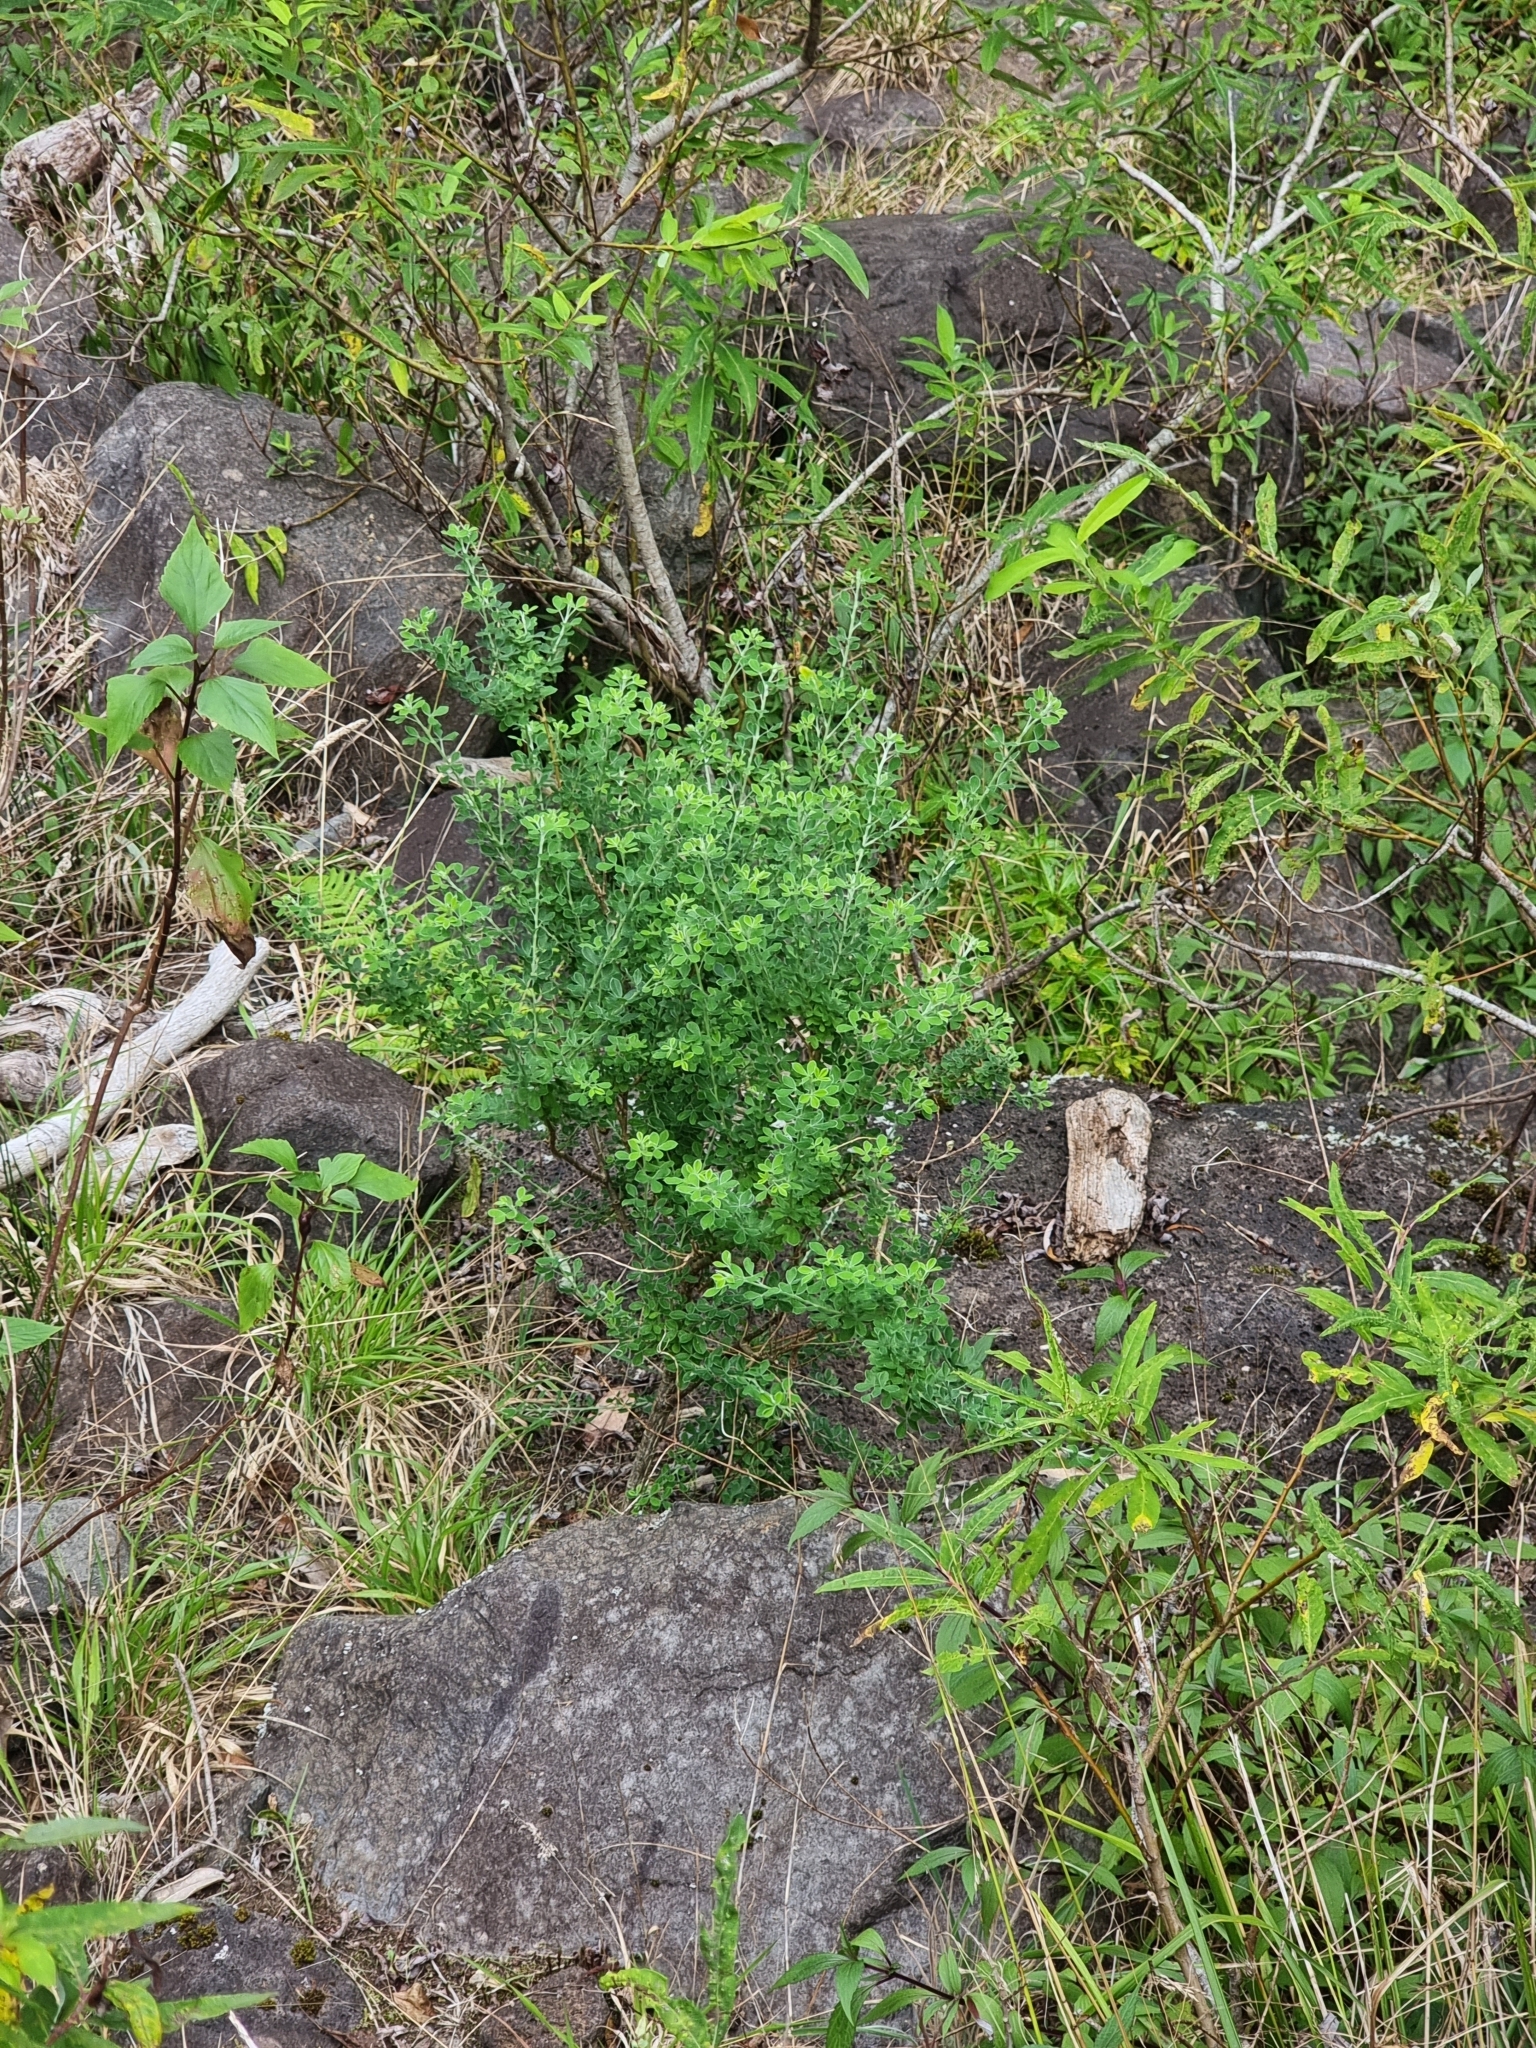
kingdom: Plantae
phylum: Tracheophyta
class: Magnoliopsida
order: Fabales
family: Fabaceae
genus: Genista
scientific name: Genista maderensis
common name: Madeira dyer's greenweed
